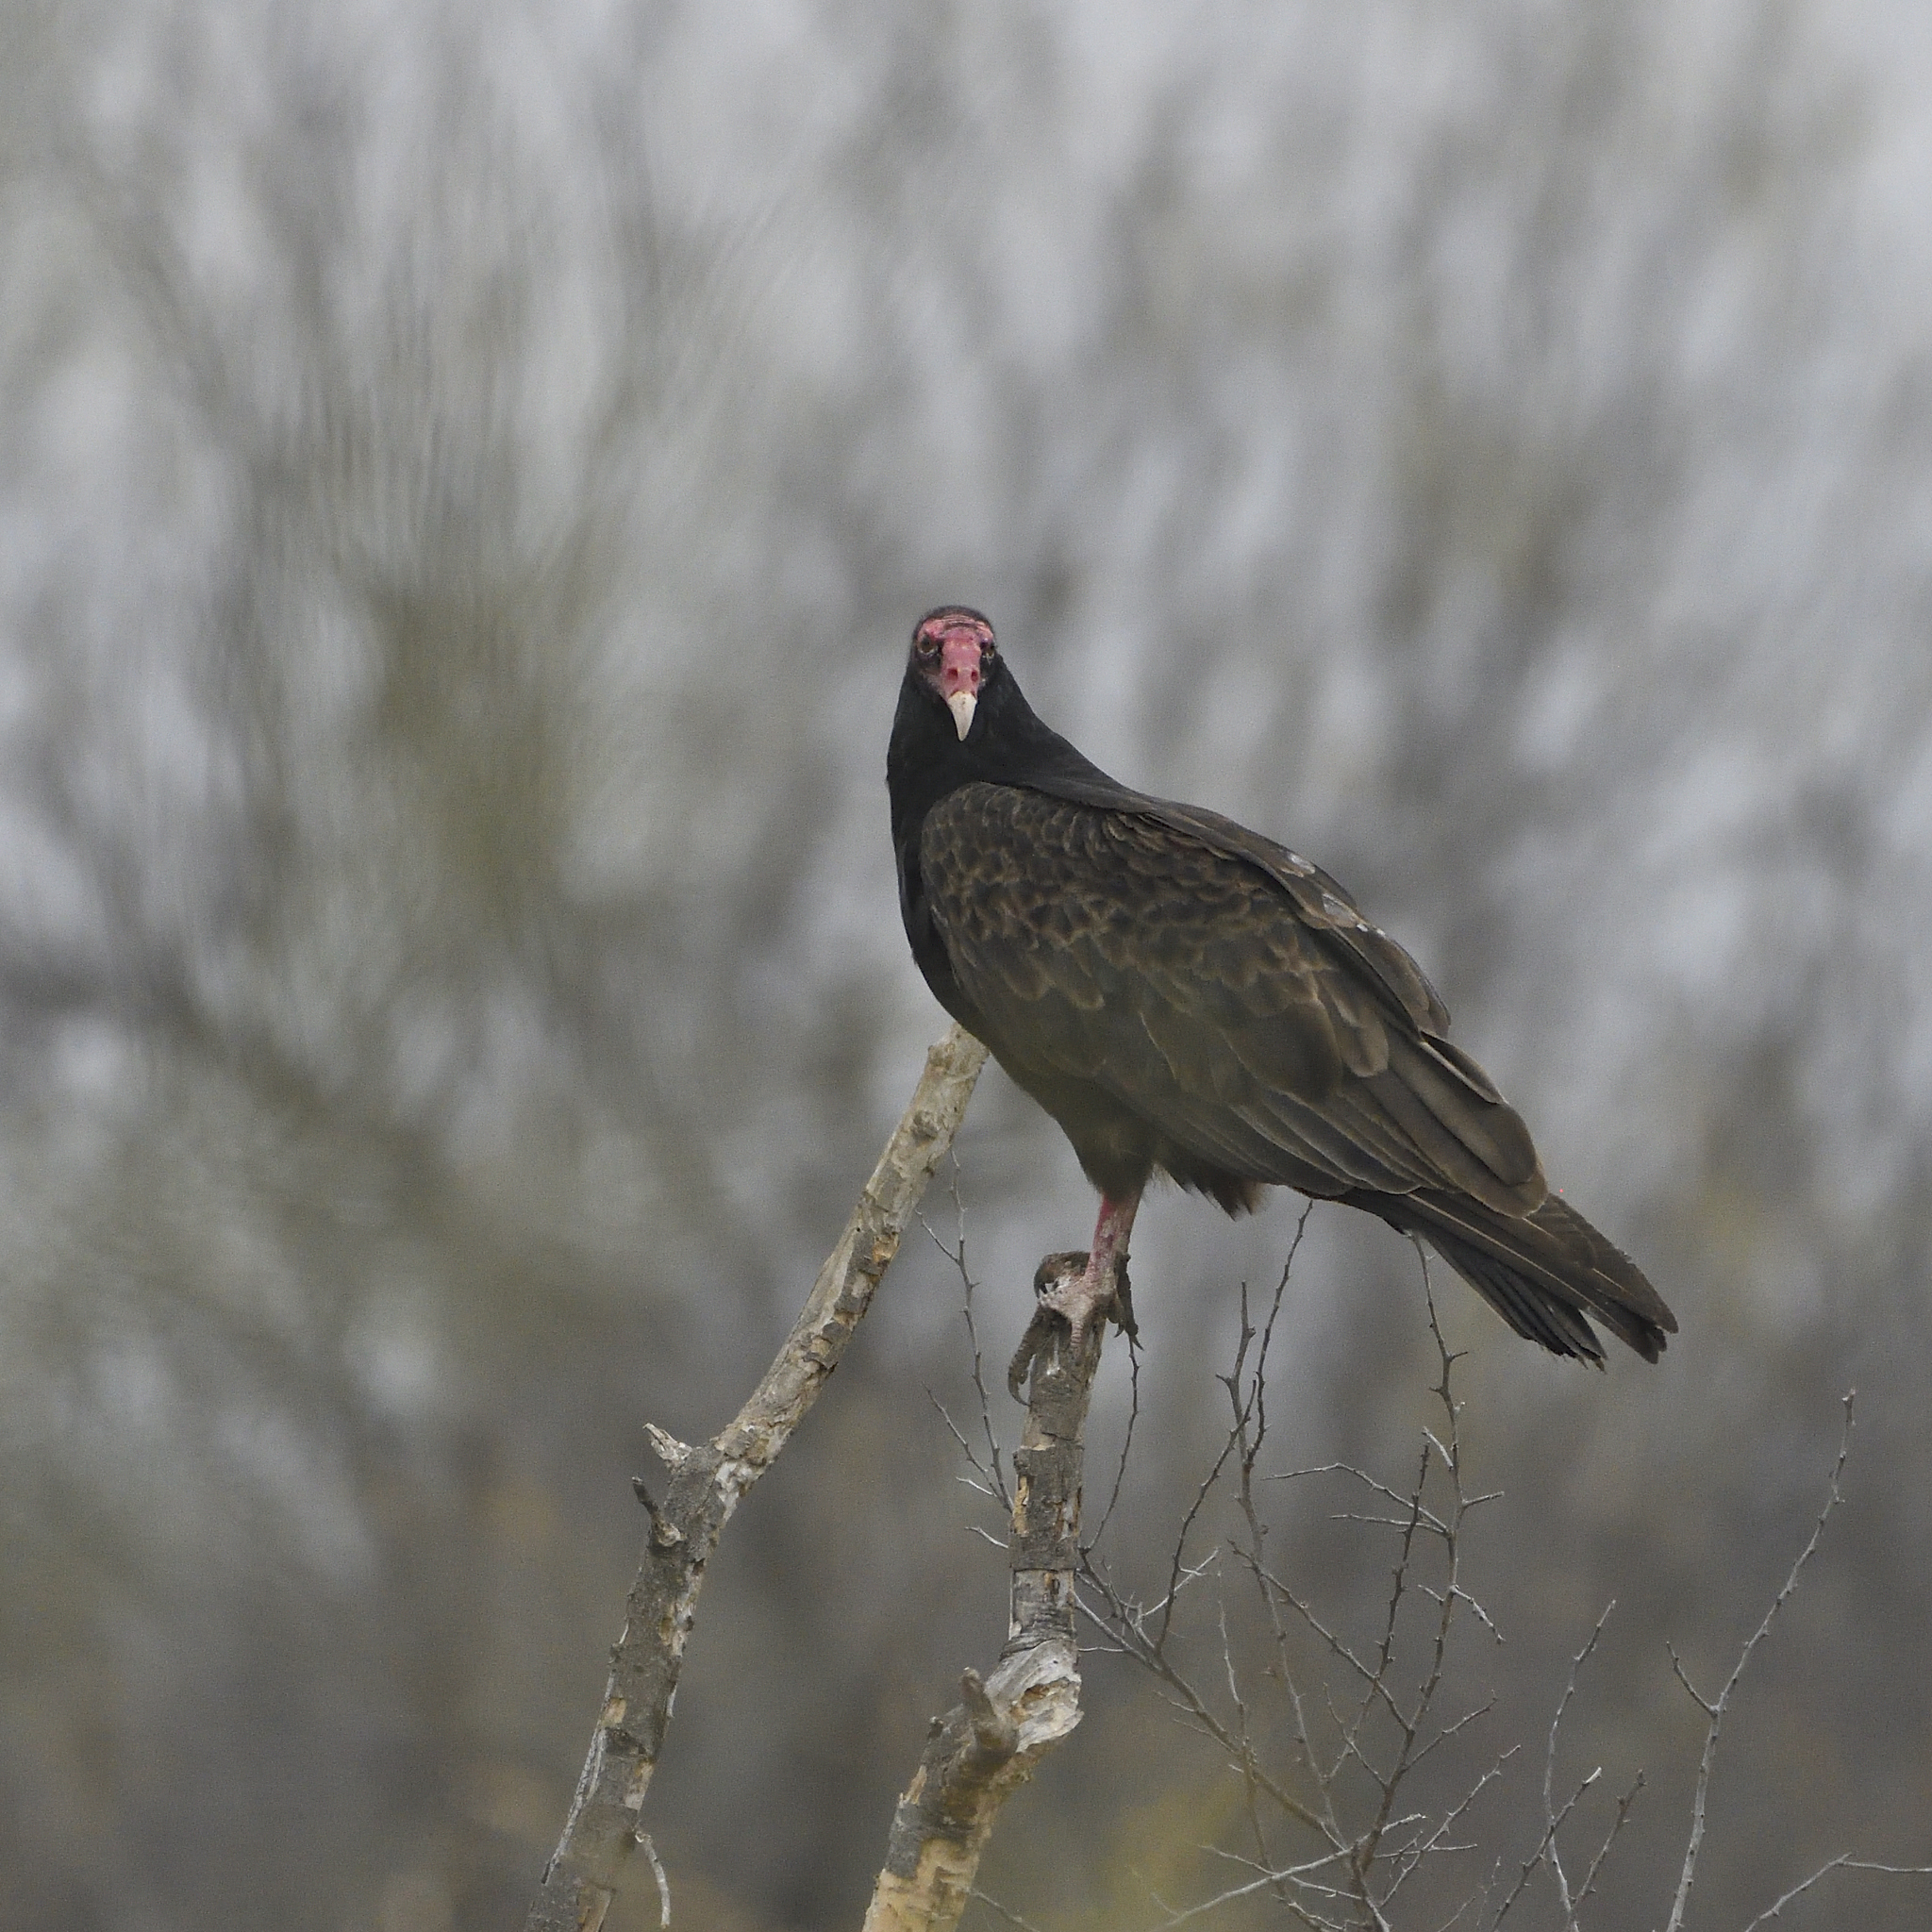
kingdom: Animalia
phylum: Chordata
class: Aves
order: Accipitriformes
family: Cathartidae
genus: Cathartes
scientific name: Cathartes aura
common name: Turkey vulture
